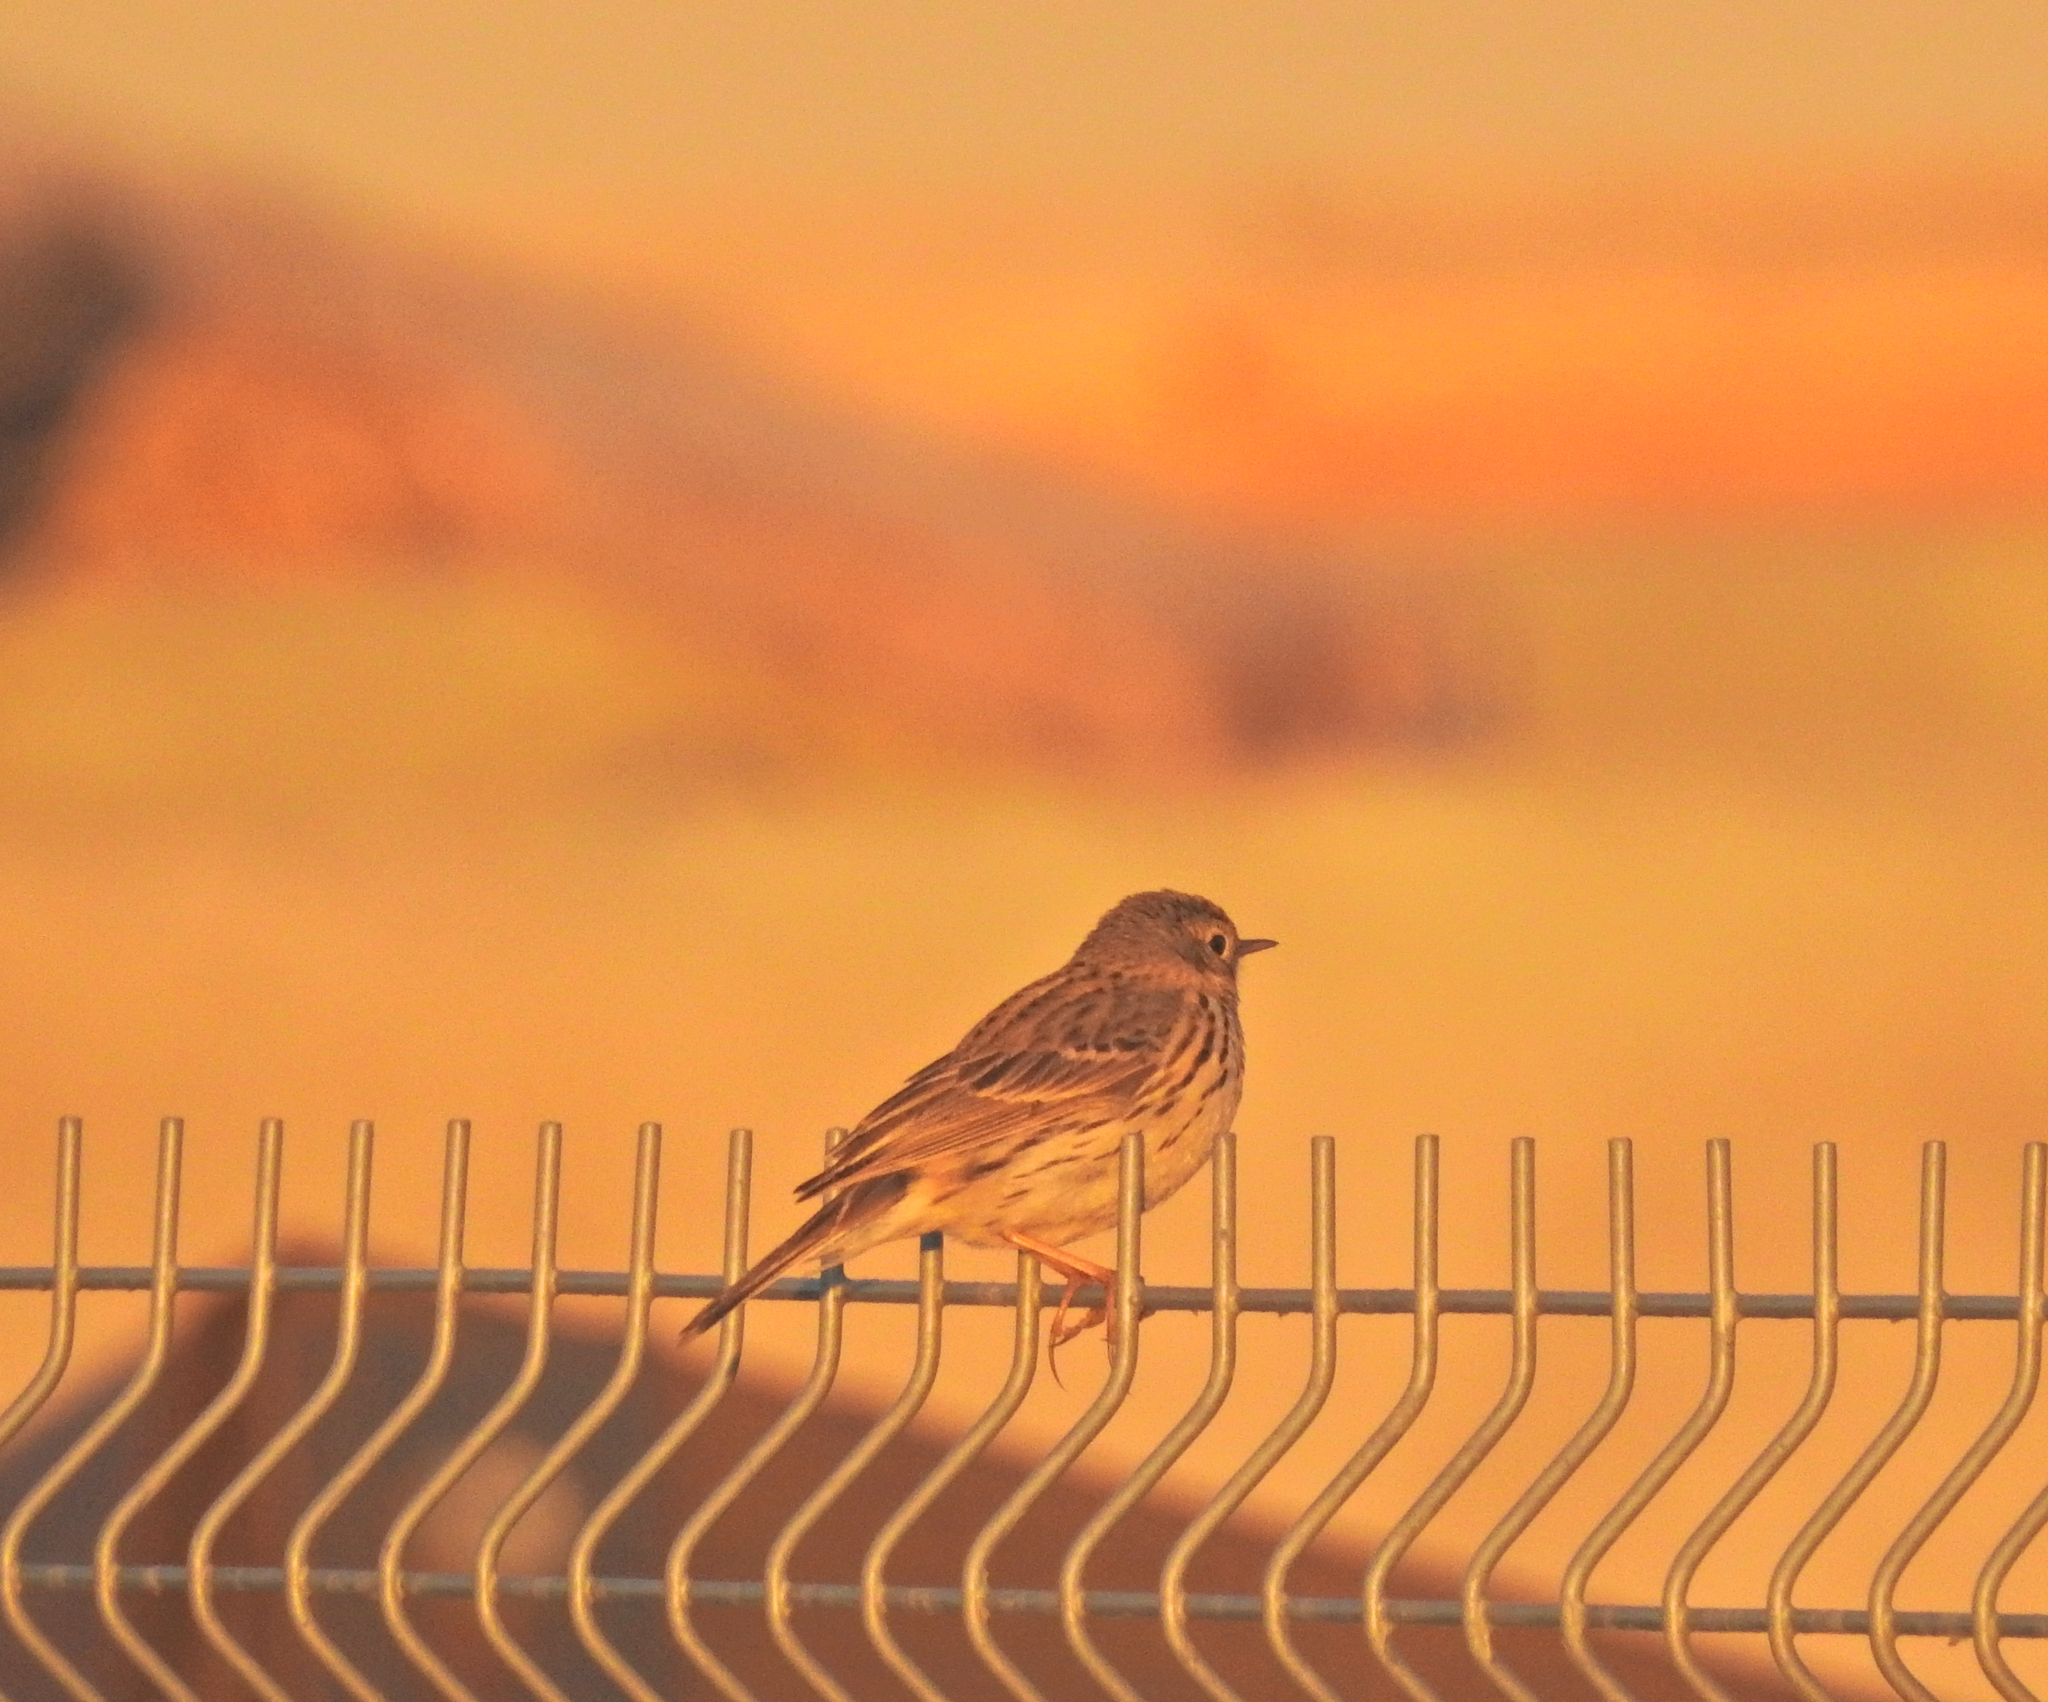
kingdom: Animalia
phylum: Chordata
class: Aves
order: Passeriformes
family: Motacillidae
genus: Anthus
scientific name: Anthus pratensis
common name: Meadow pipit
